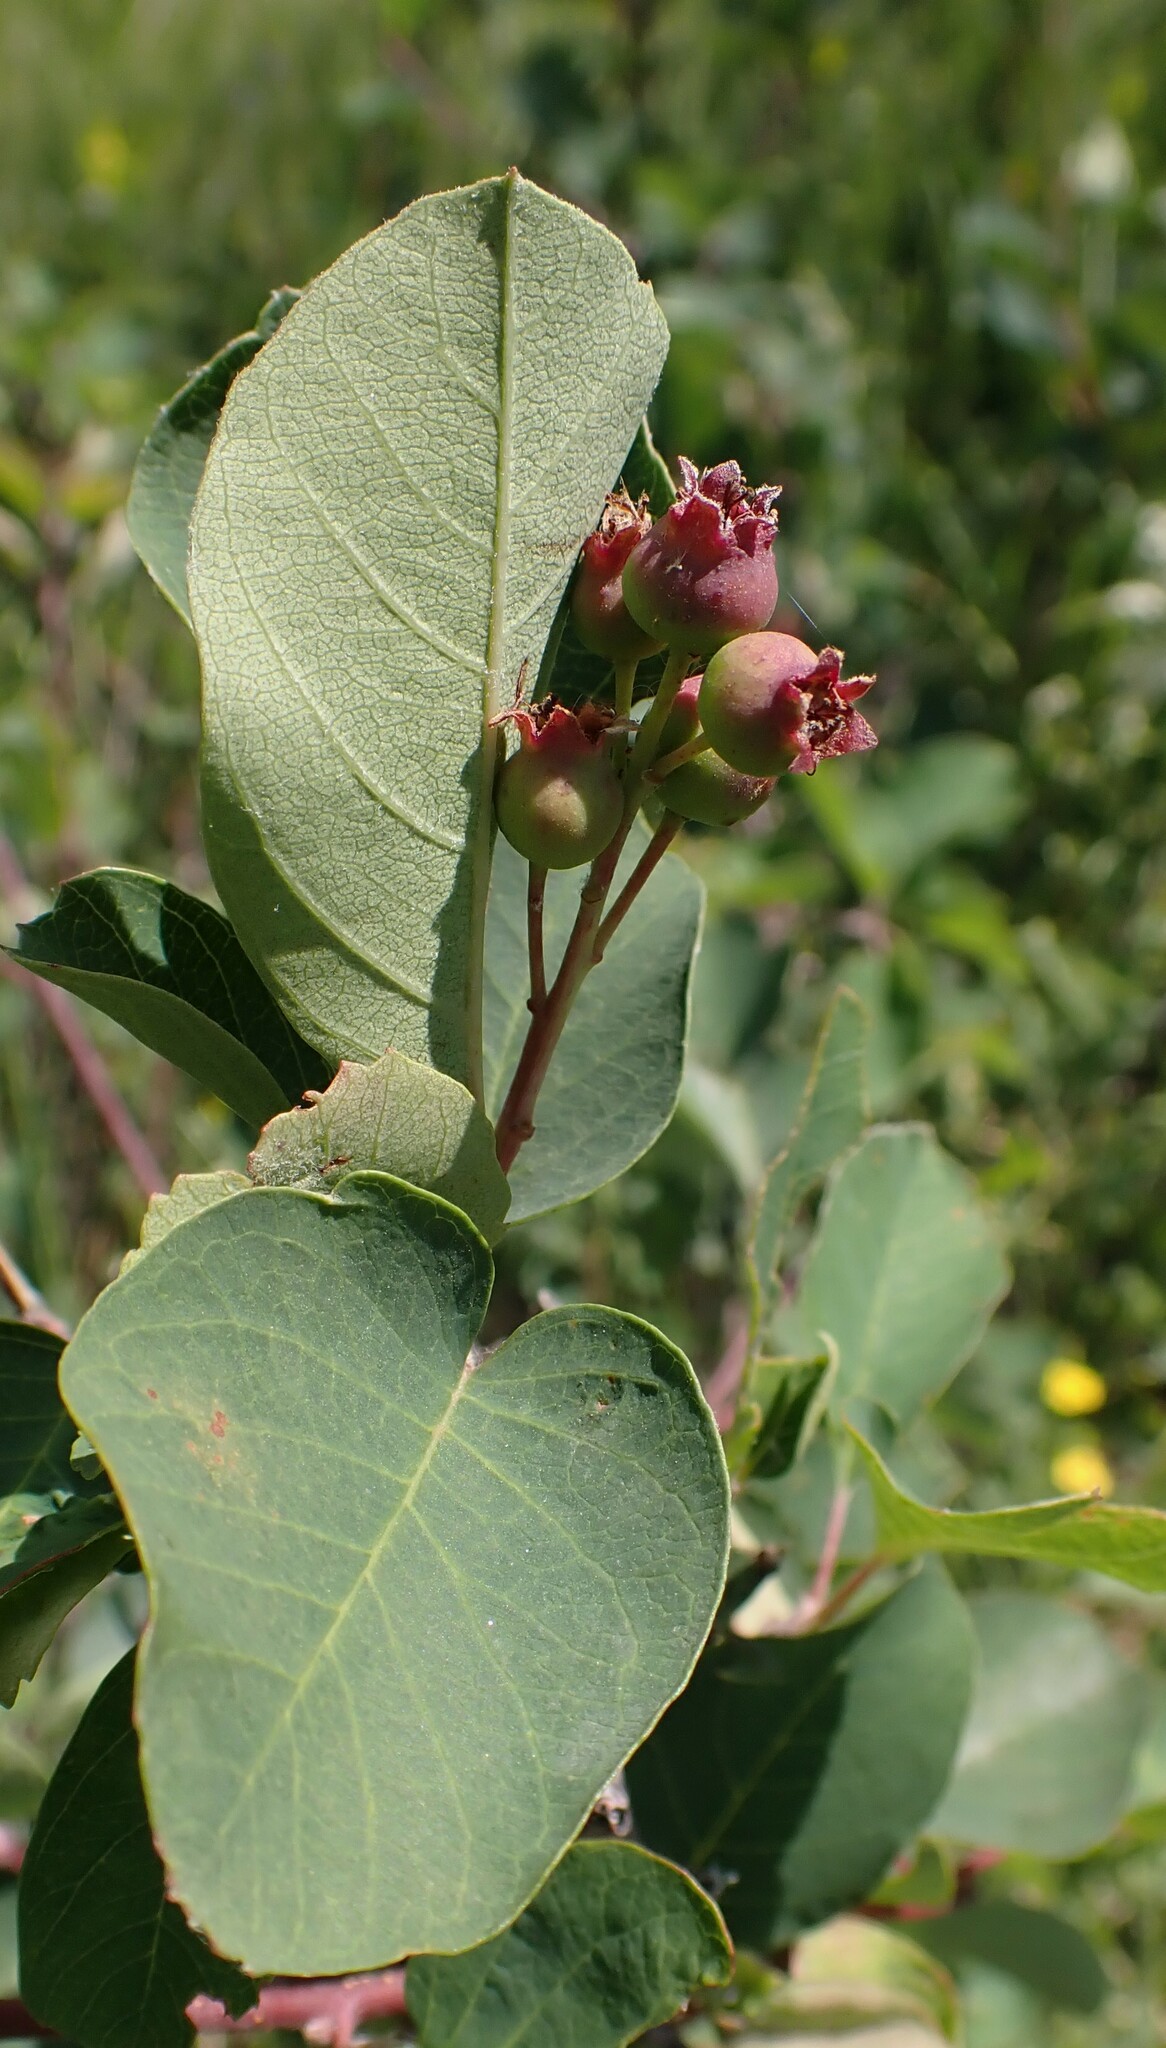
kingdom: Plantae
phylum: Tracheophyta
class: Magnoliopsida
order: Rosales
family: Rosaceae
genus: Amelanchier
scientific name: Amelanchier alnifolia
